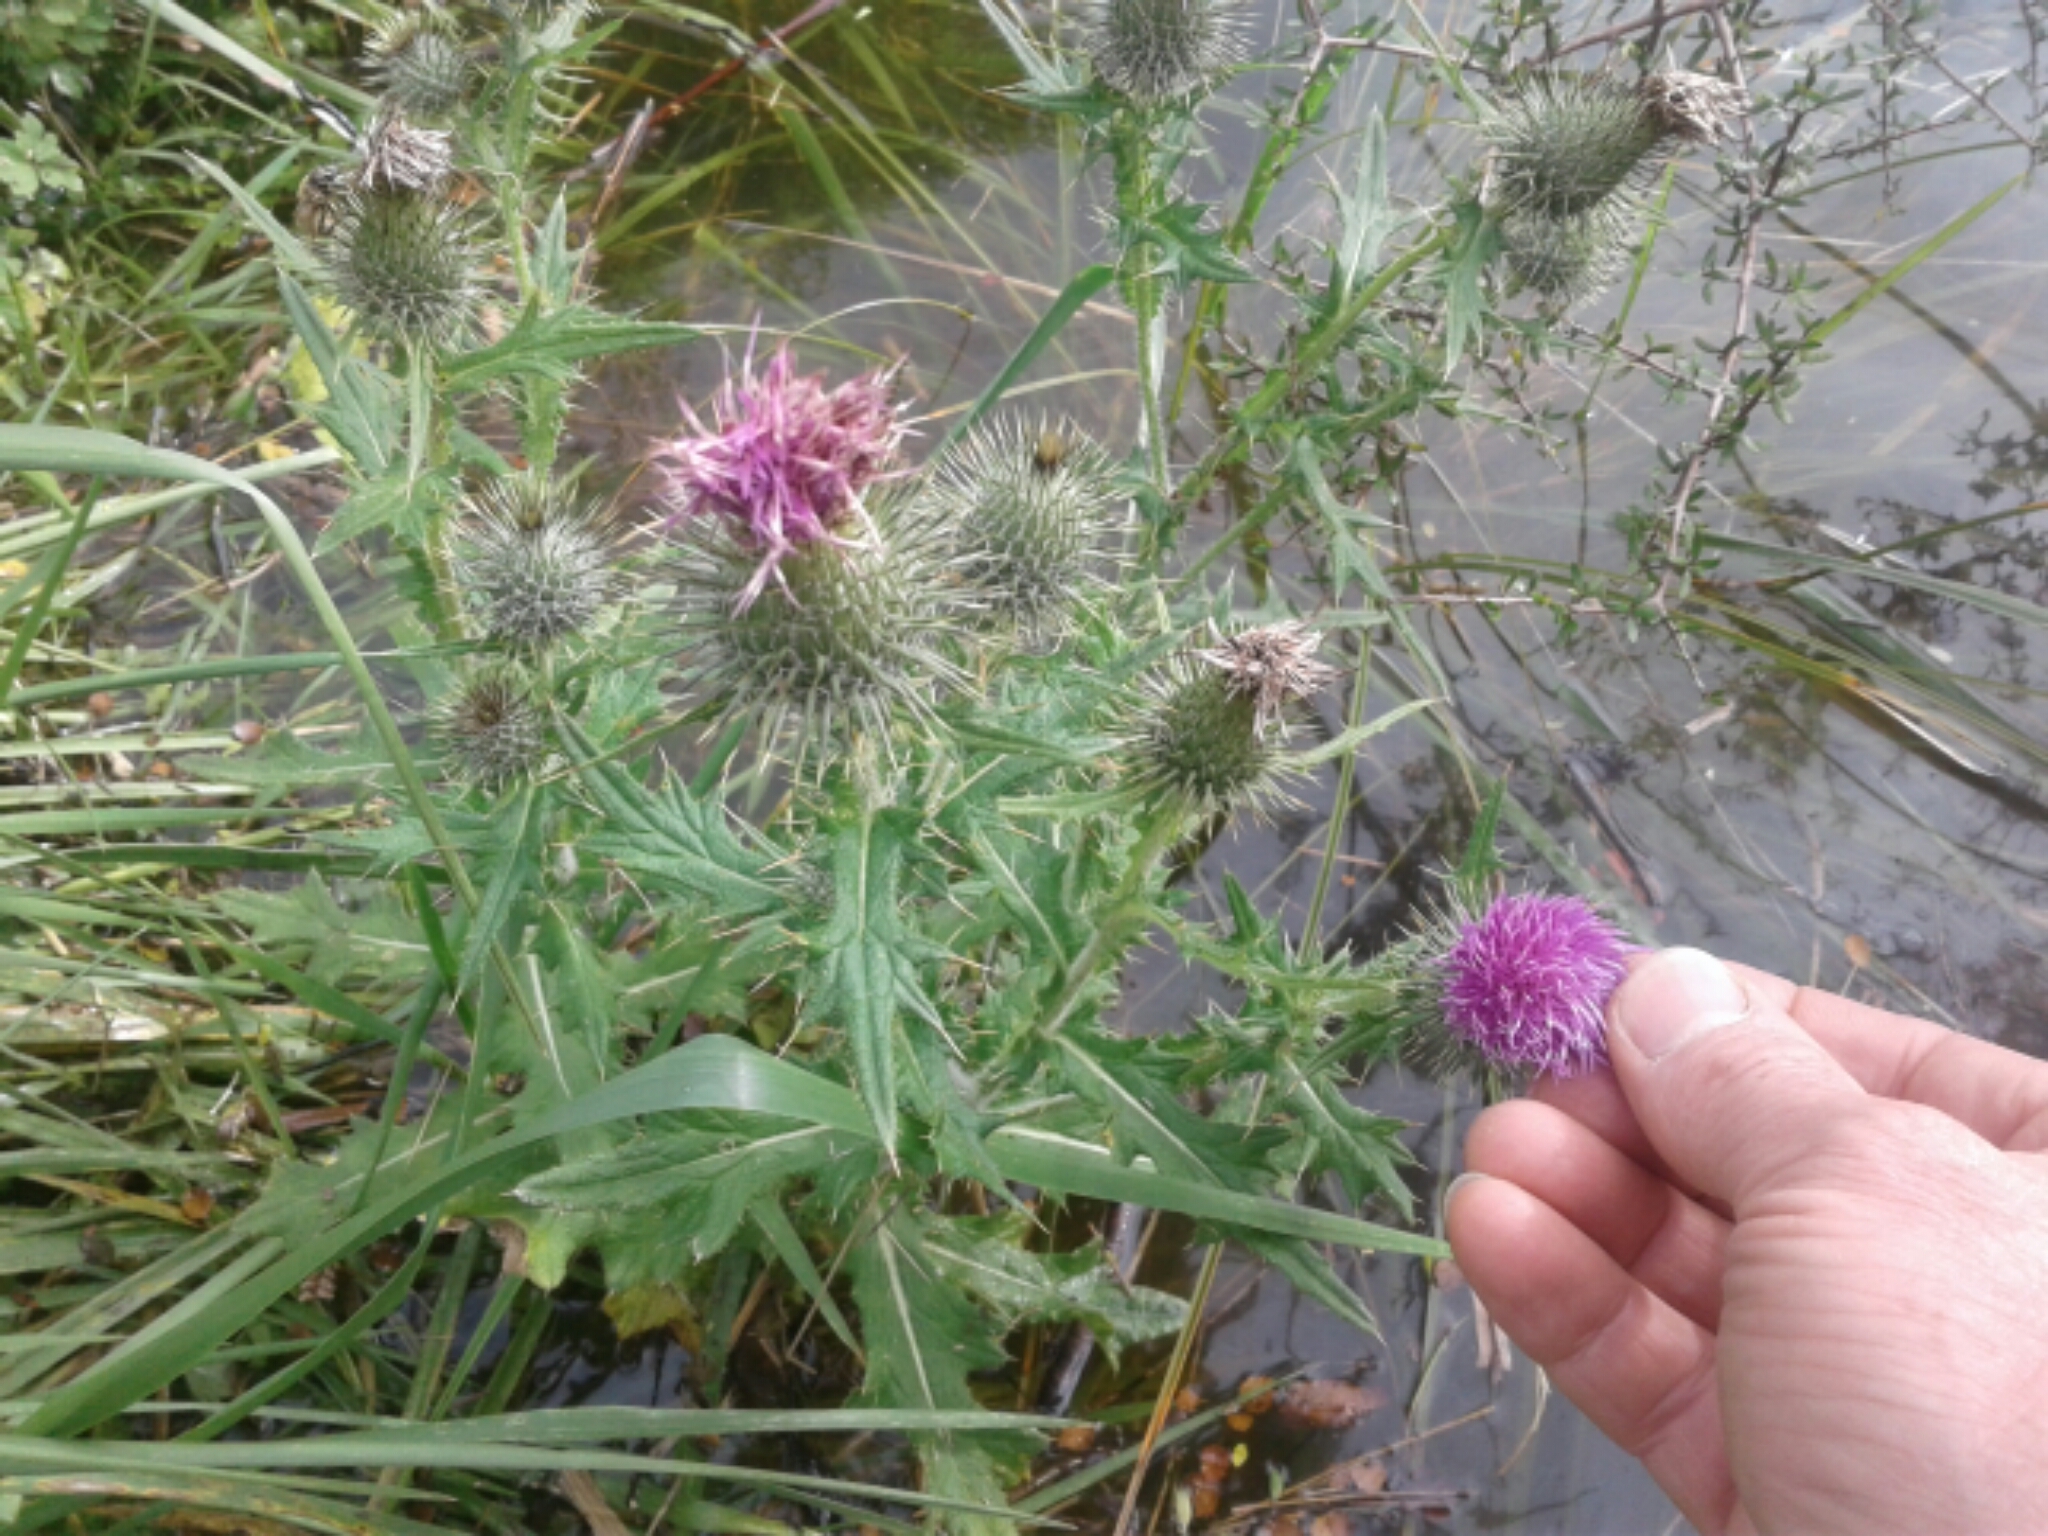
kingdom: Plantae
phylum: Tracheophyta
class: Magnoliopsida
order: Asterales
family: Asteraceae
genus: Cirsium
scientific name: Cirsium vulgare
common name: Bull thistle
